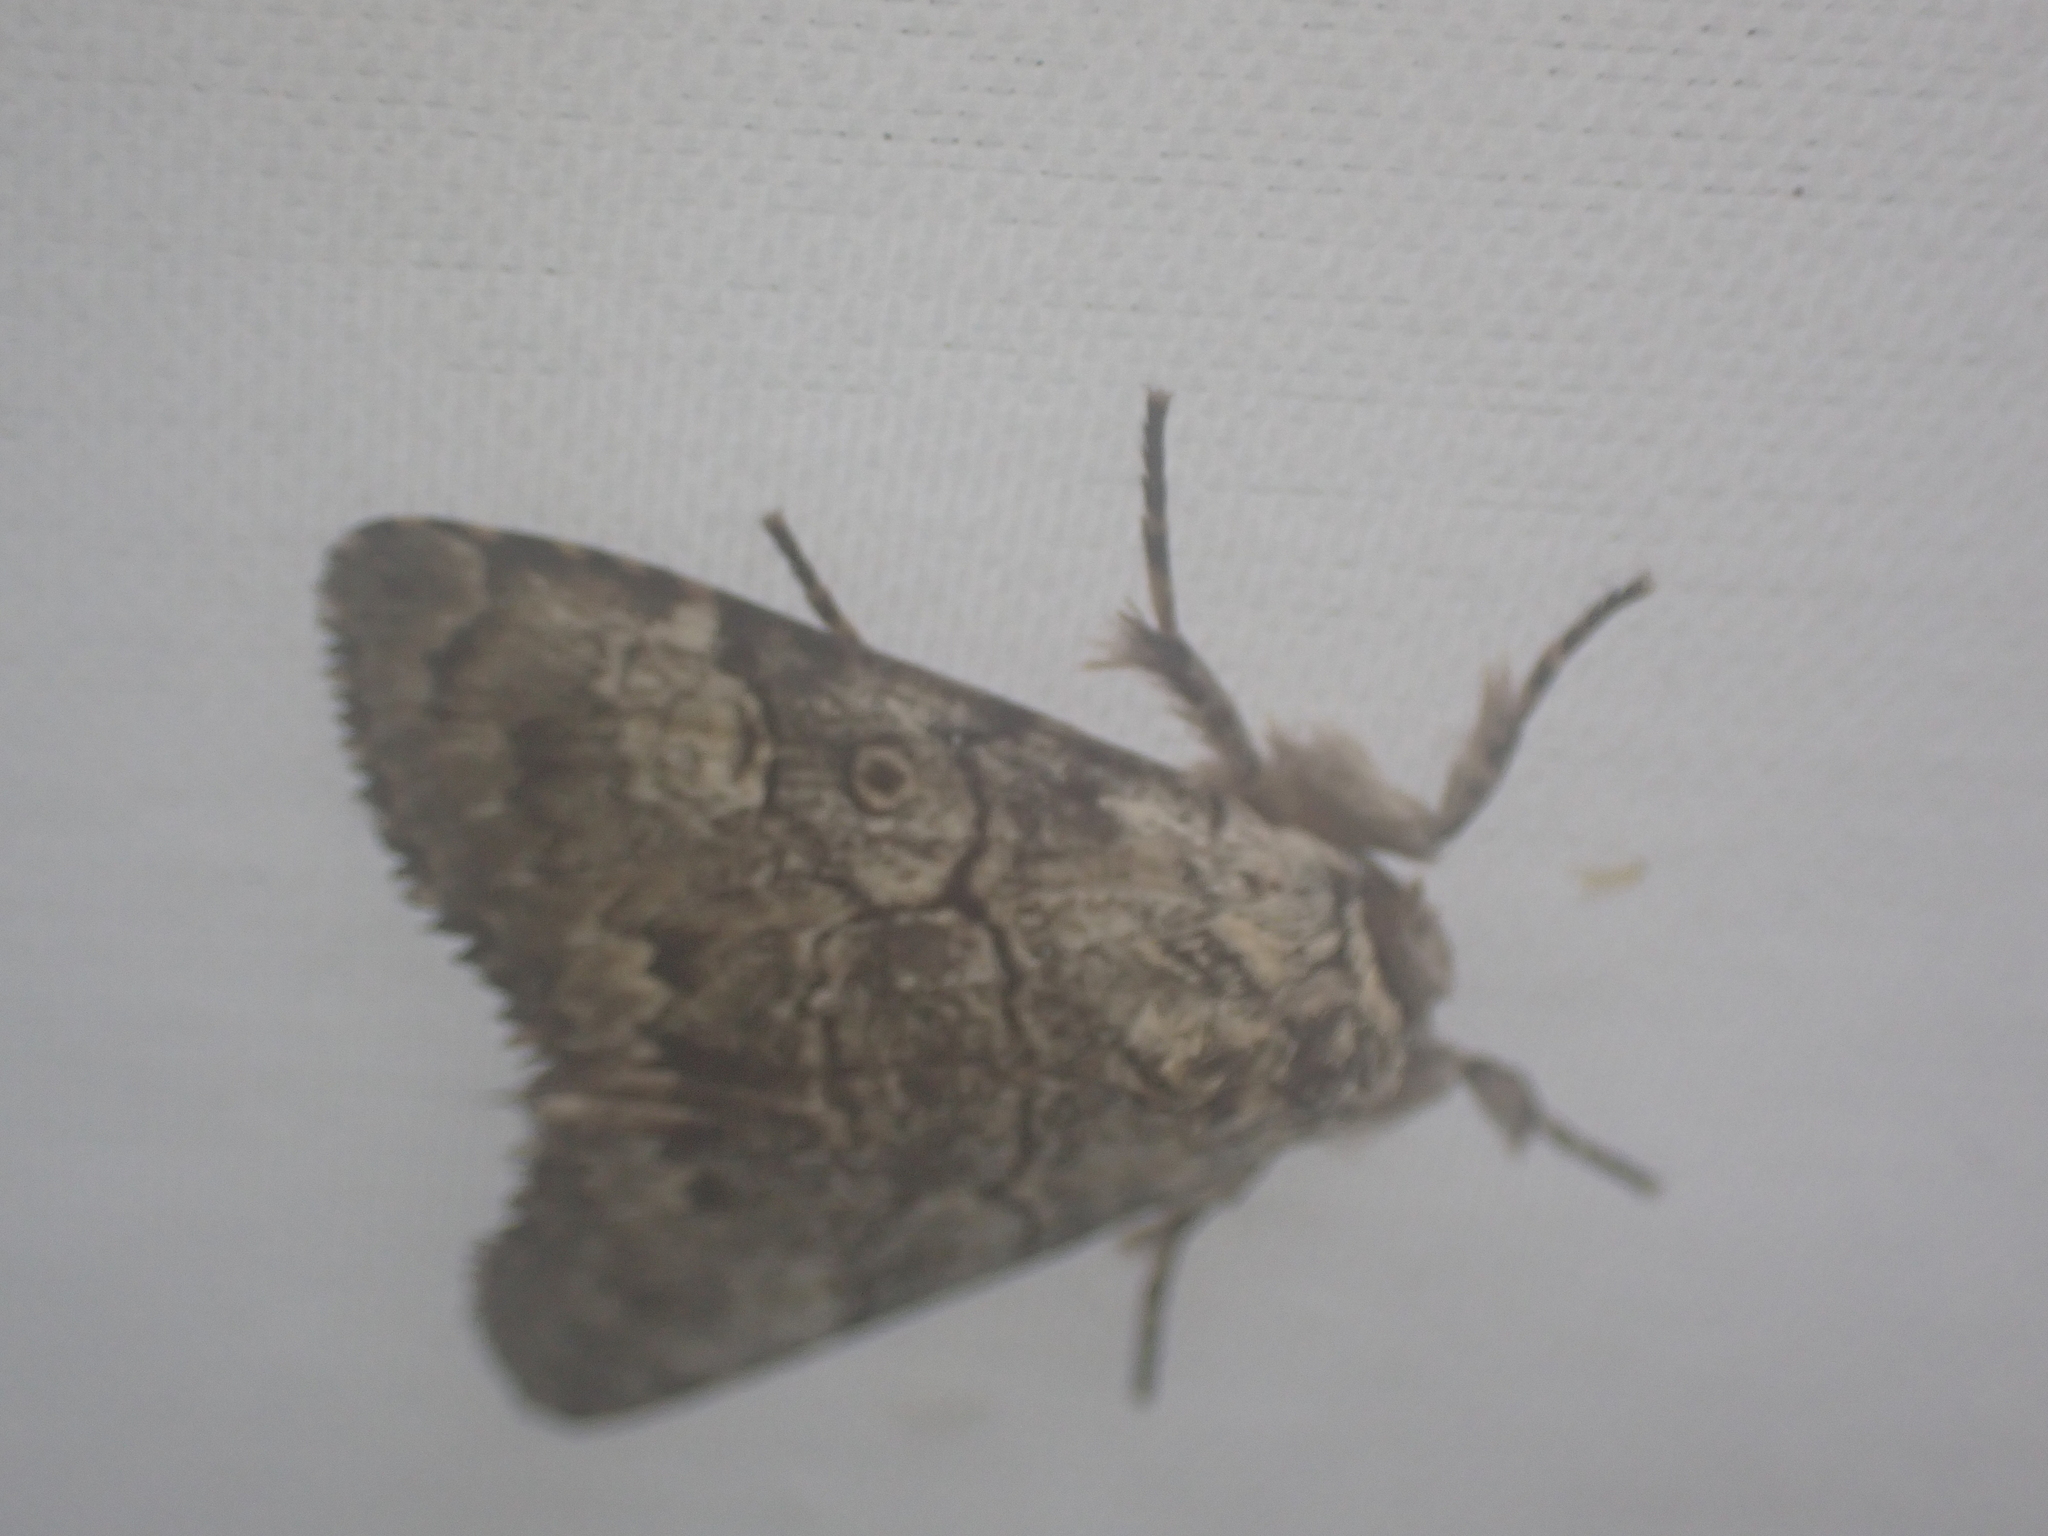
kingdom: Animalia
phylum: Arthropoda
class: Insecta
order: Lepidoptera
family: Noctuidae
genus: Charadra
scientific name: Charadra deridens
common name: Marbled tuffet
